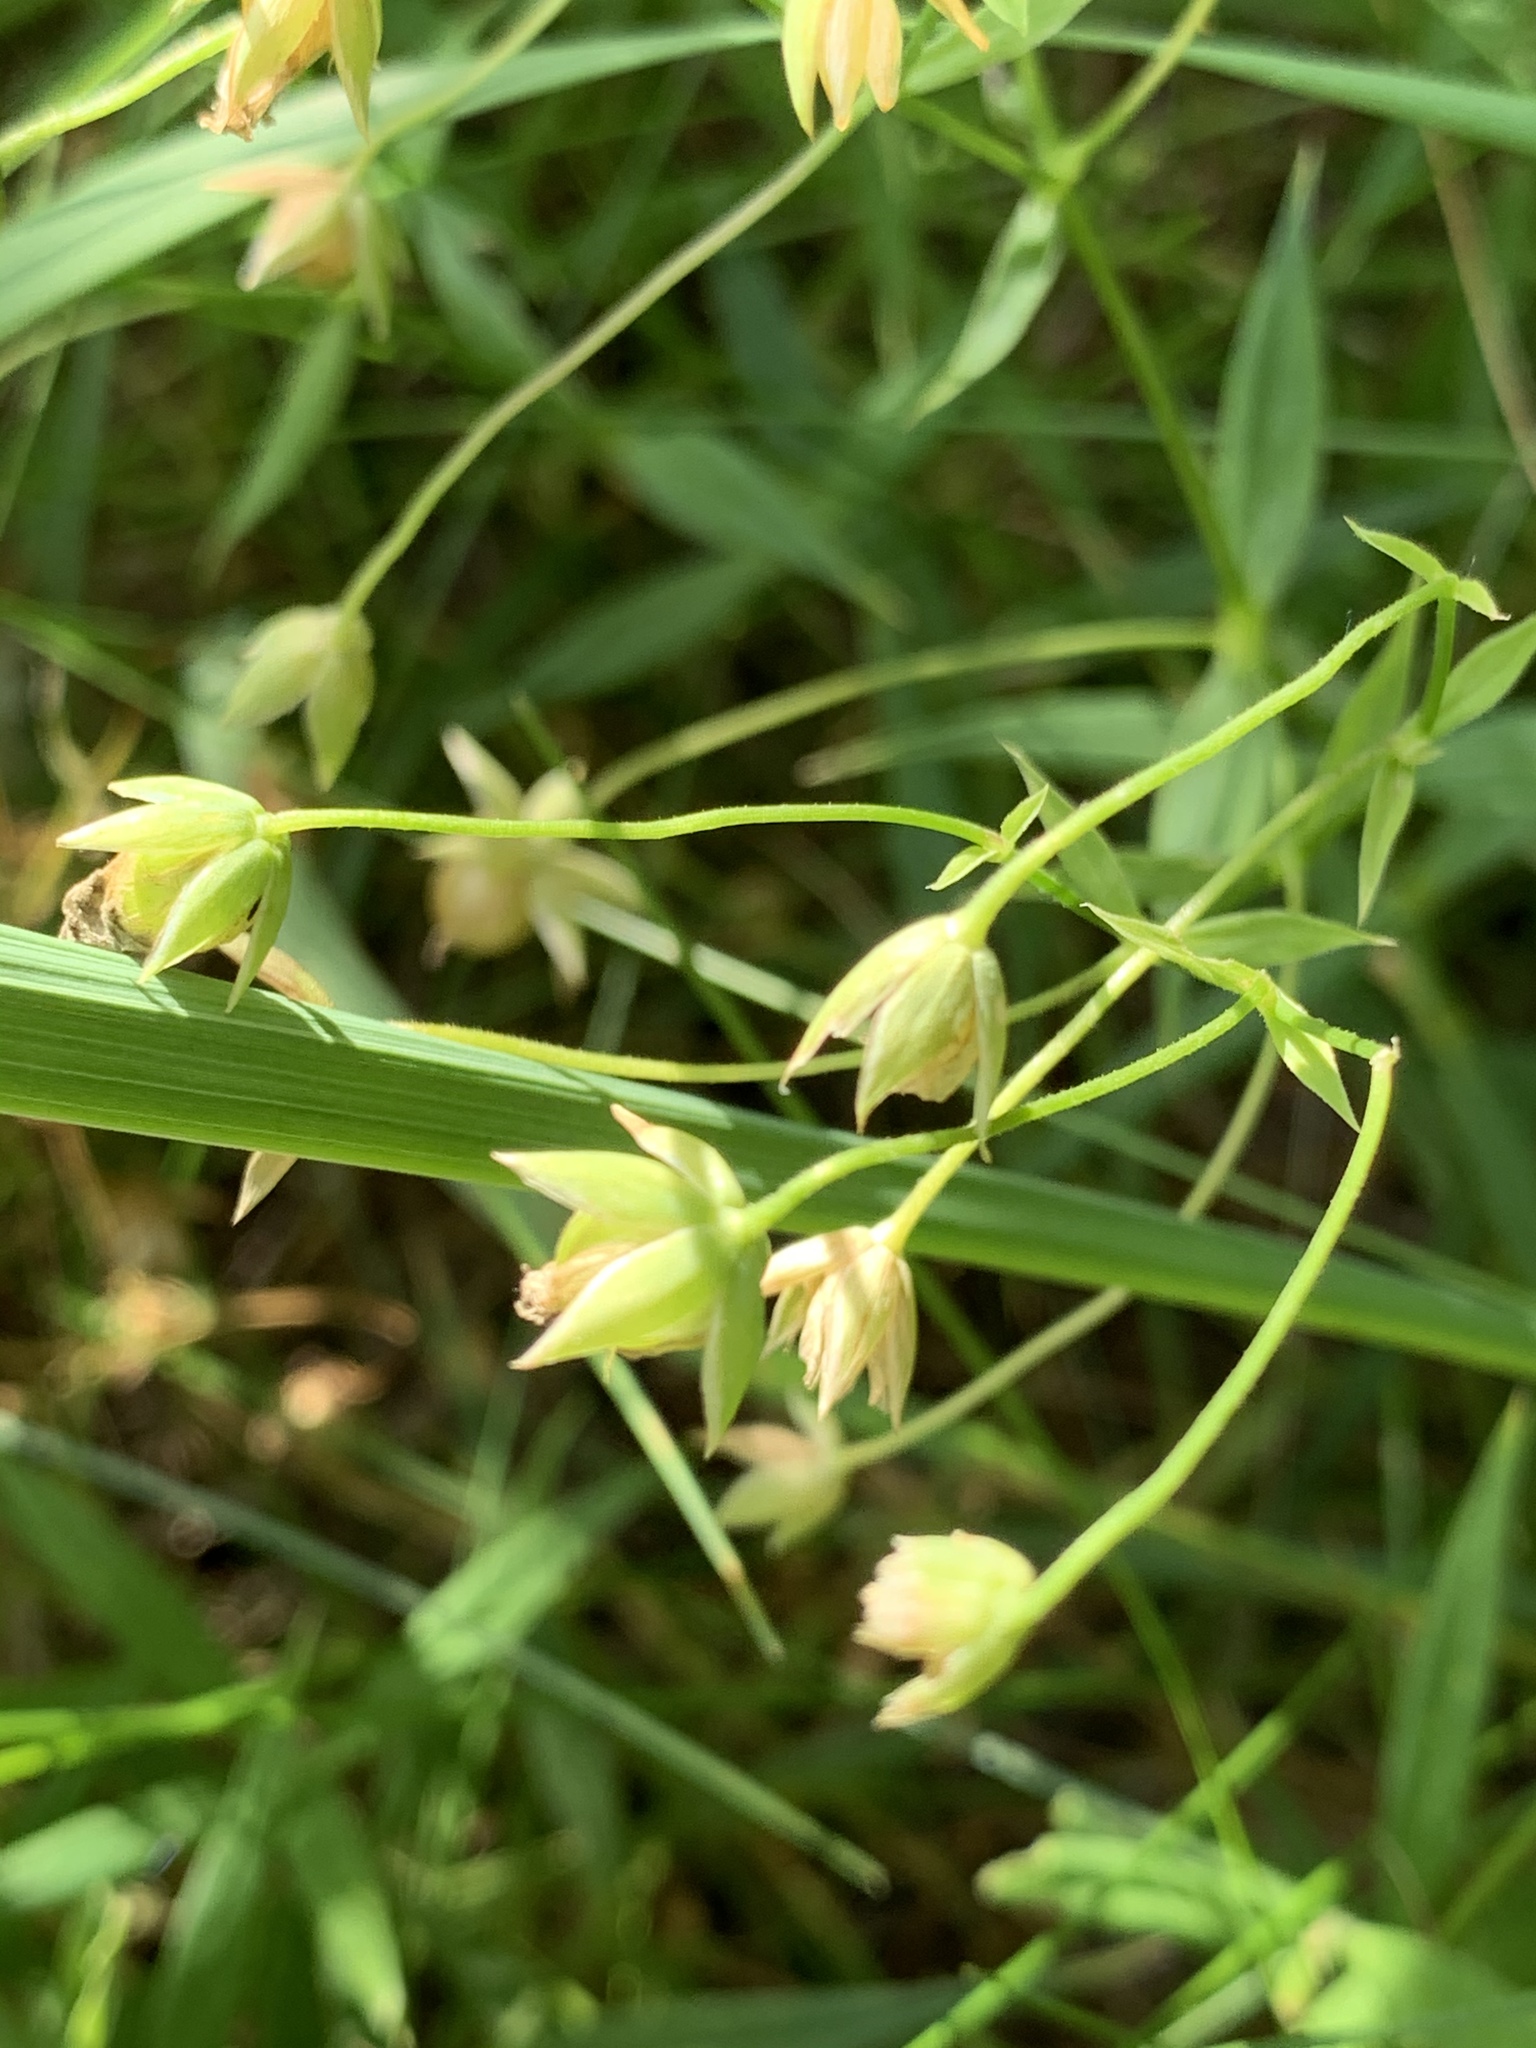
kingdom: Plantae
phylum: Tracheophyta
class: Magnoliopsida
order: Caryophyllales
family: Caryophyllaceae
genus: Rabelera
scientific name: Rabelera holostea
